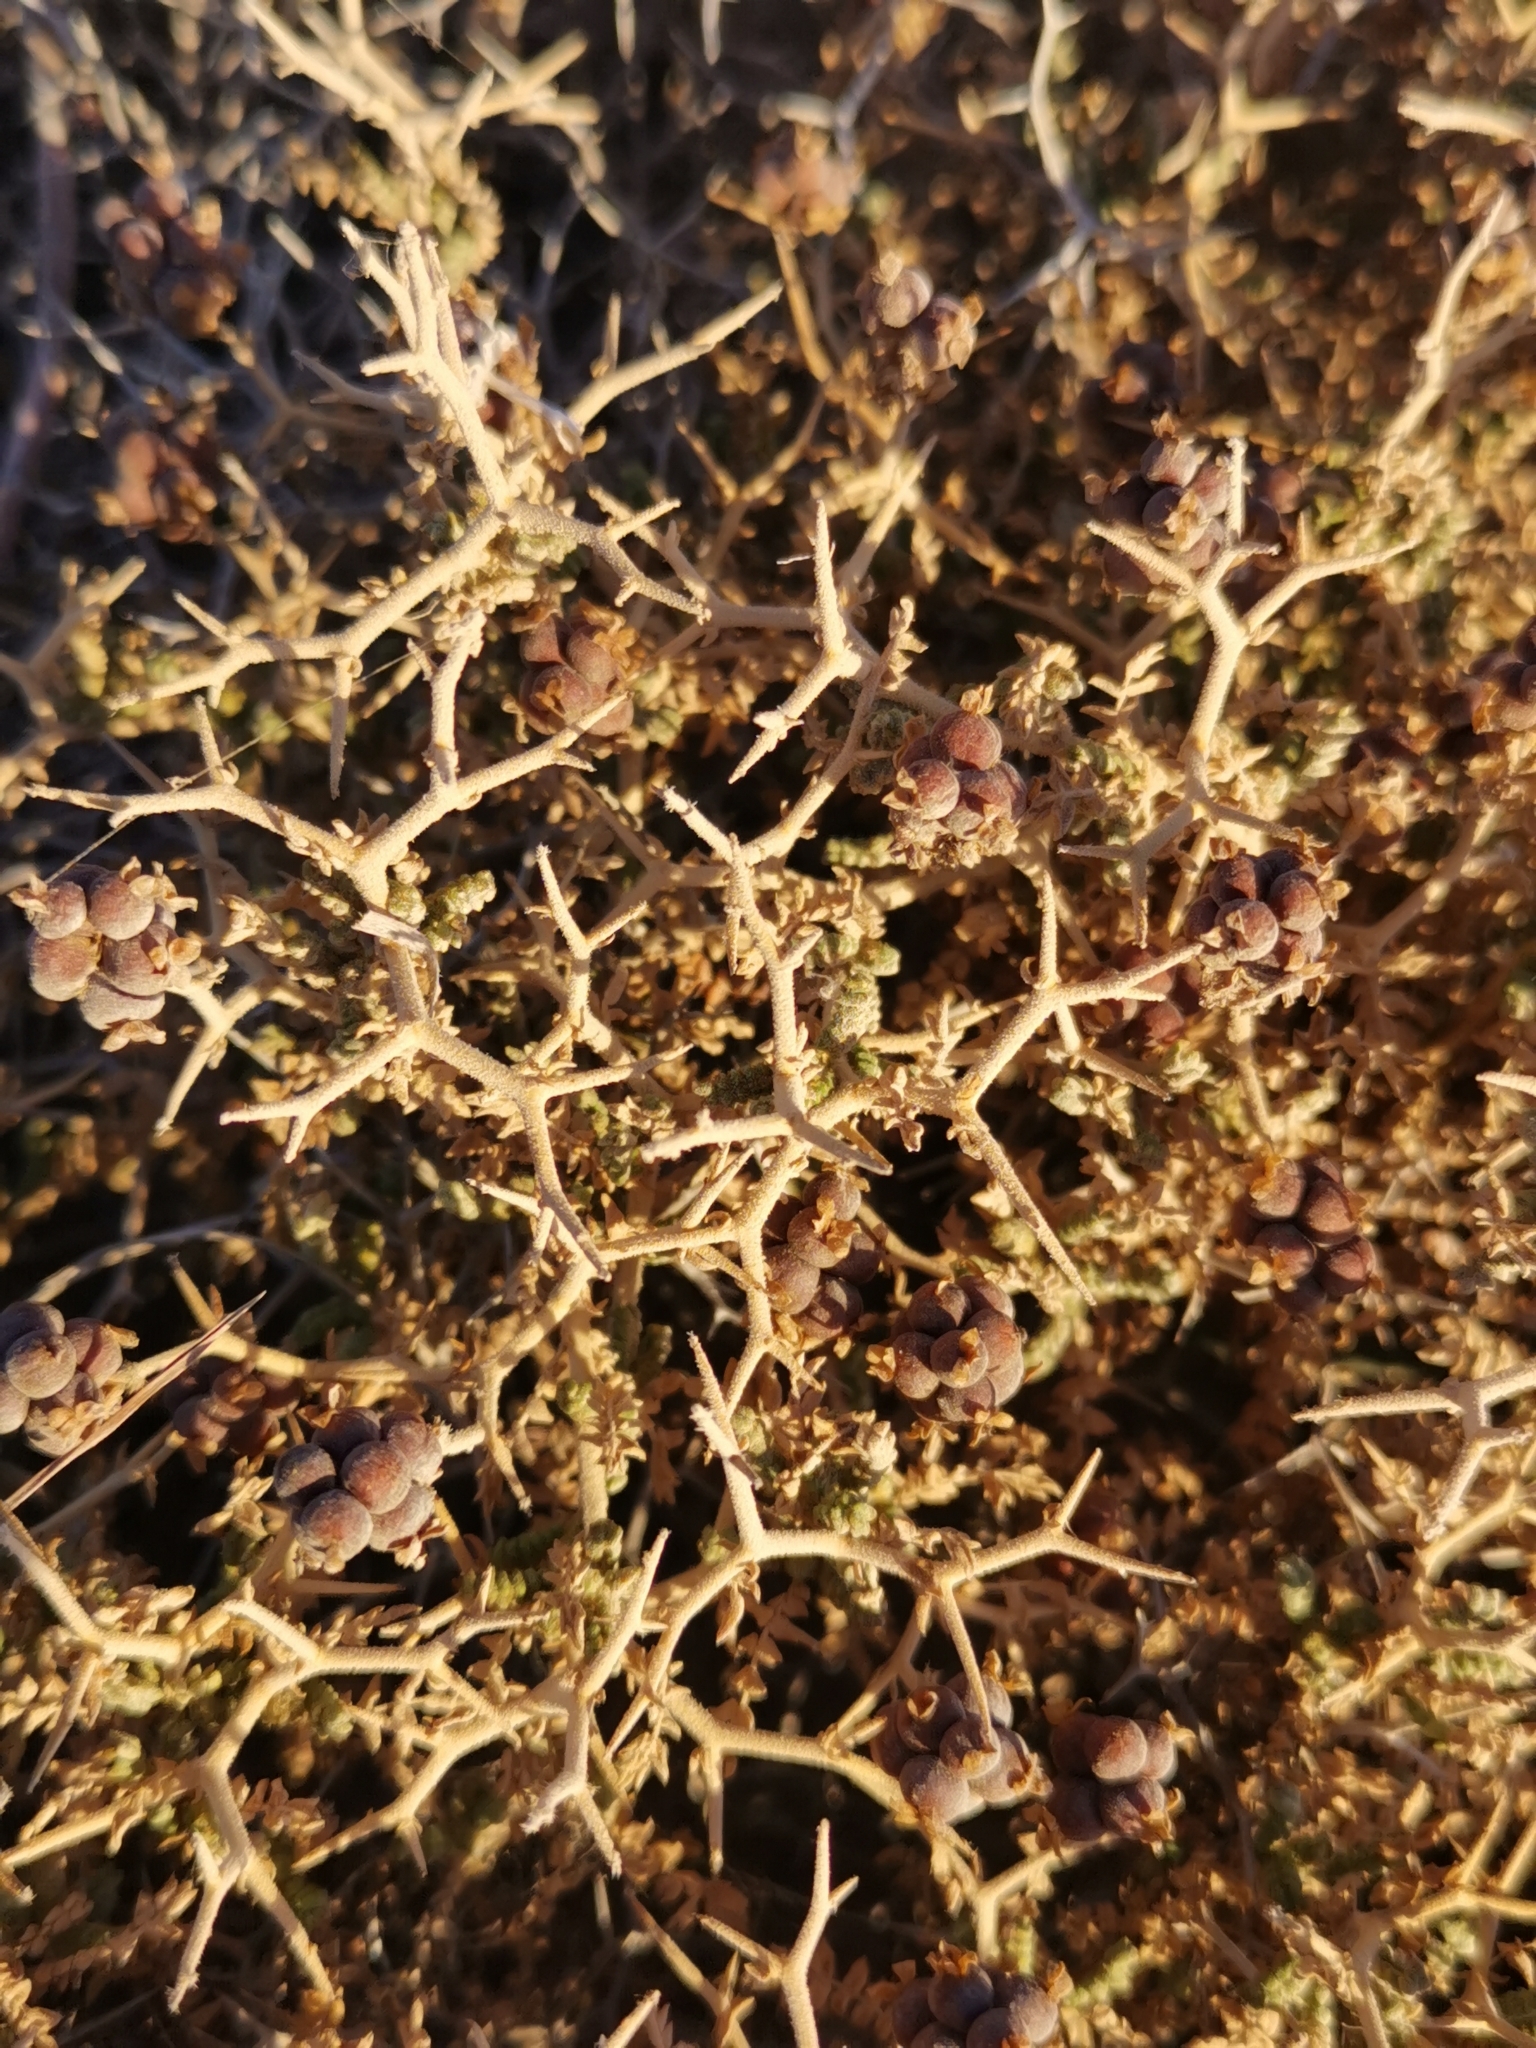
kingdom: Plantae
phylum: Tracheophyta
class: Magnoliopsida
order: Rosales
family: Rosaceae
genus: Sarcopoterium
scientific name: Sarcopoterium spinosum
